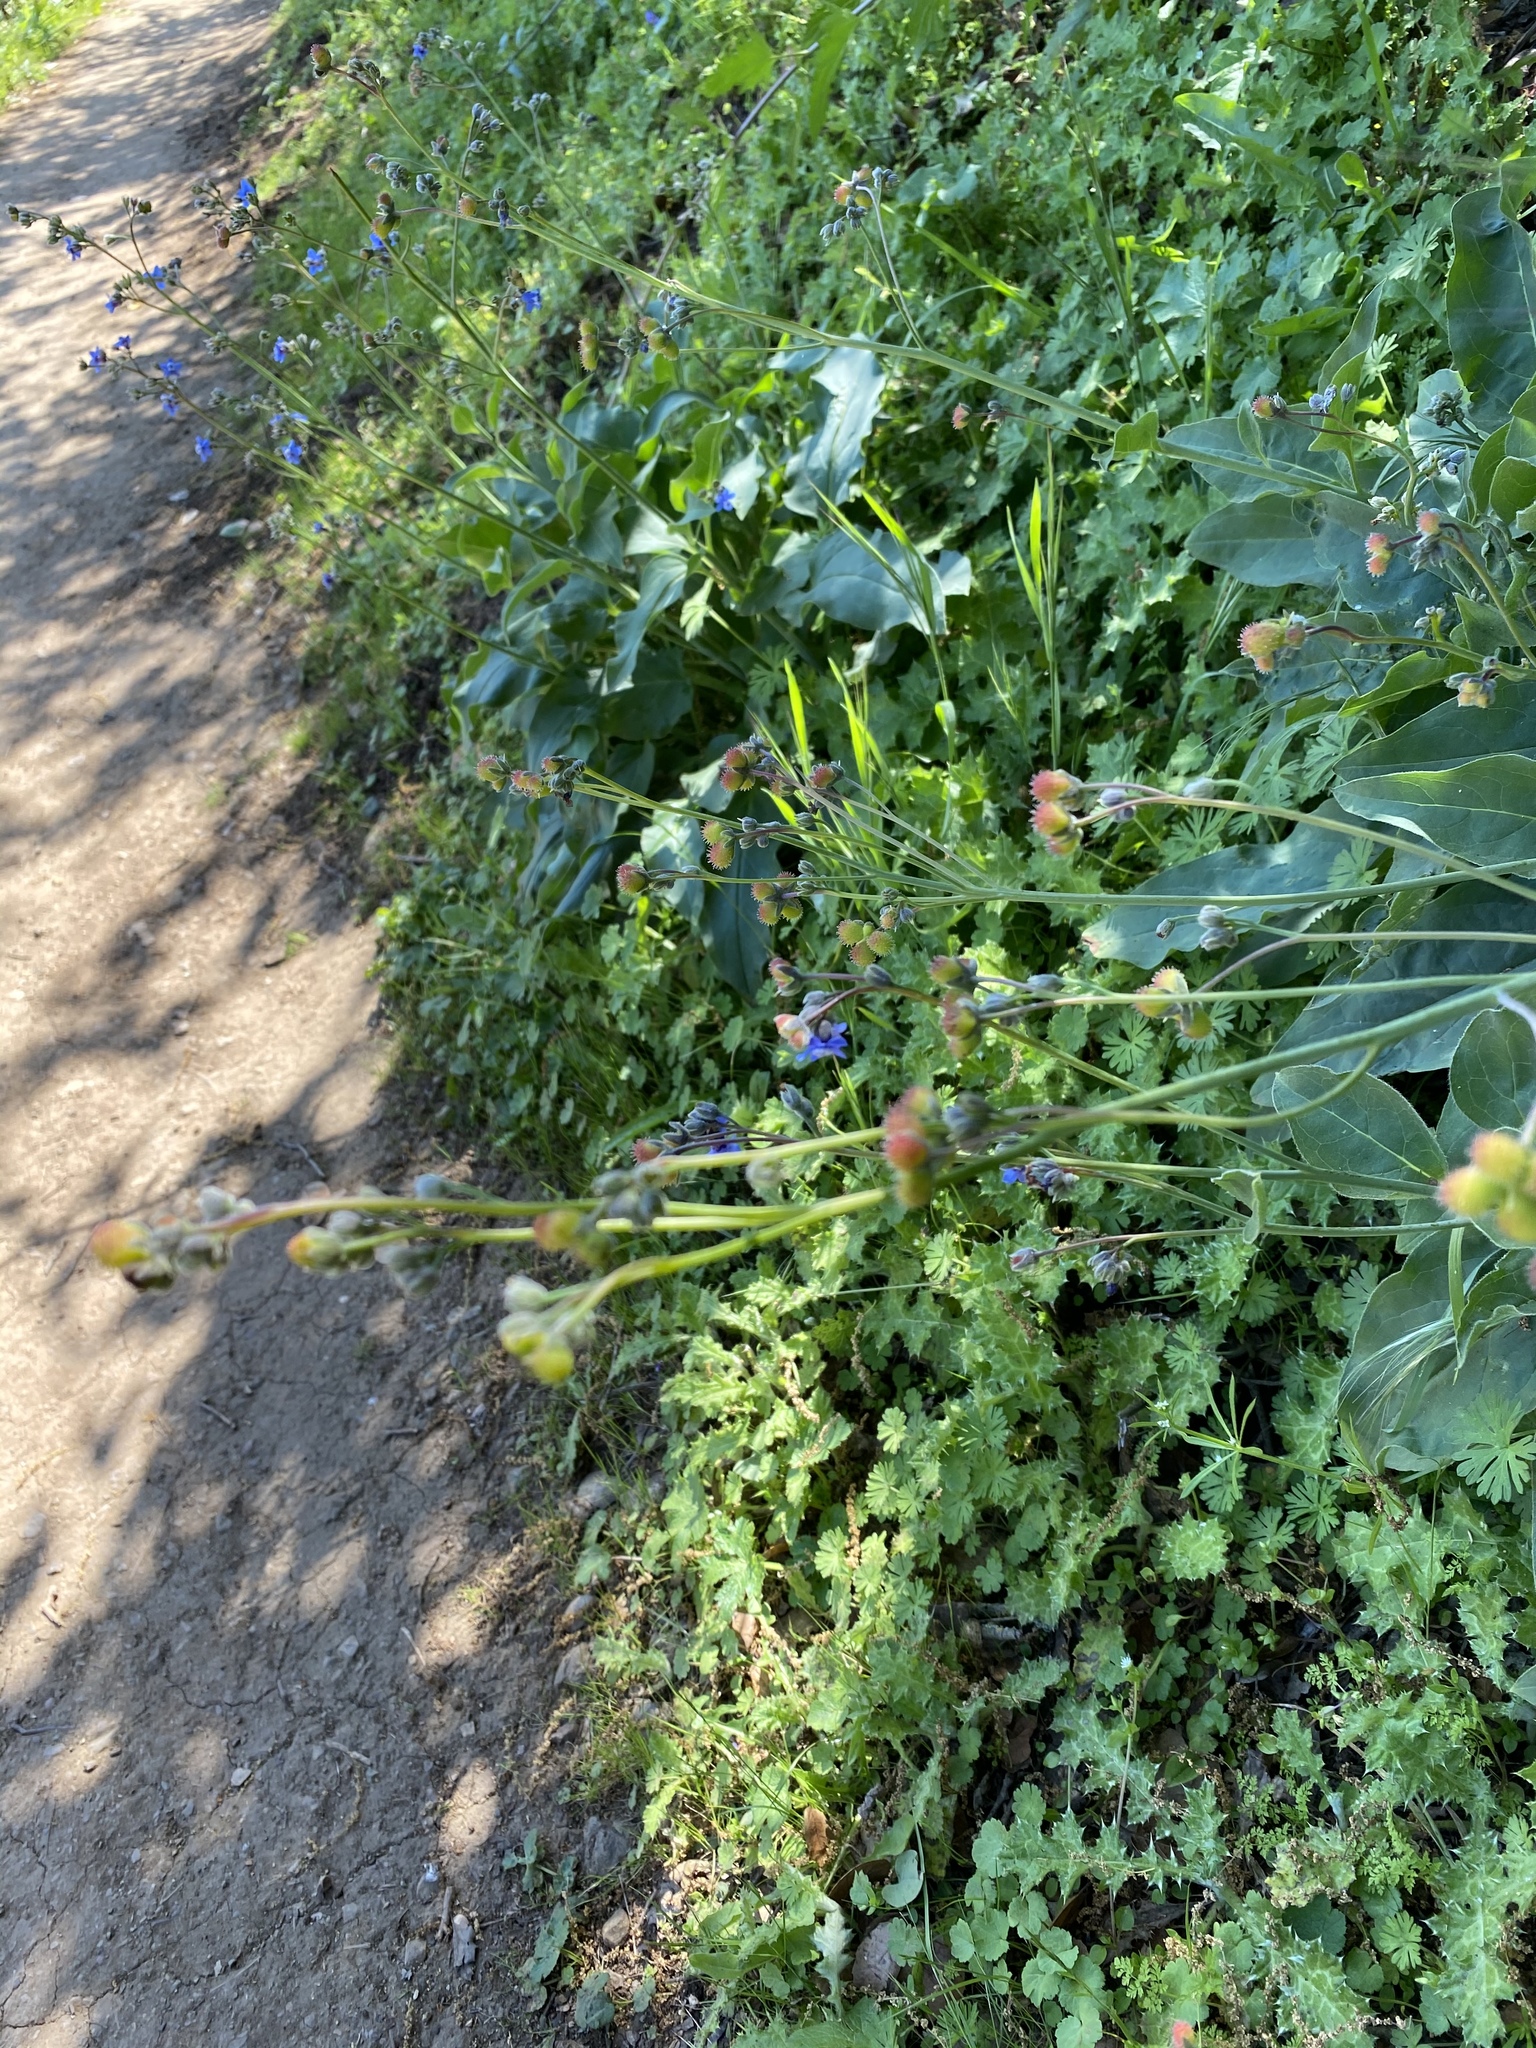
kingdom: Plantae
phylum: Tracheophyta
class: Magnoliopsida
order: Boraginales
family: Boraginaceae
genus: Adelinia
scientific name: Adelinia grande
